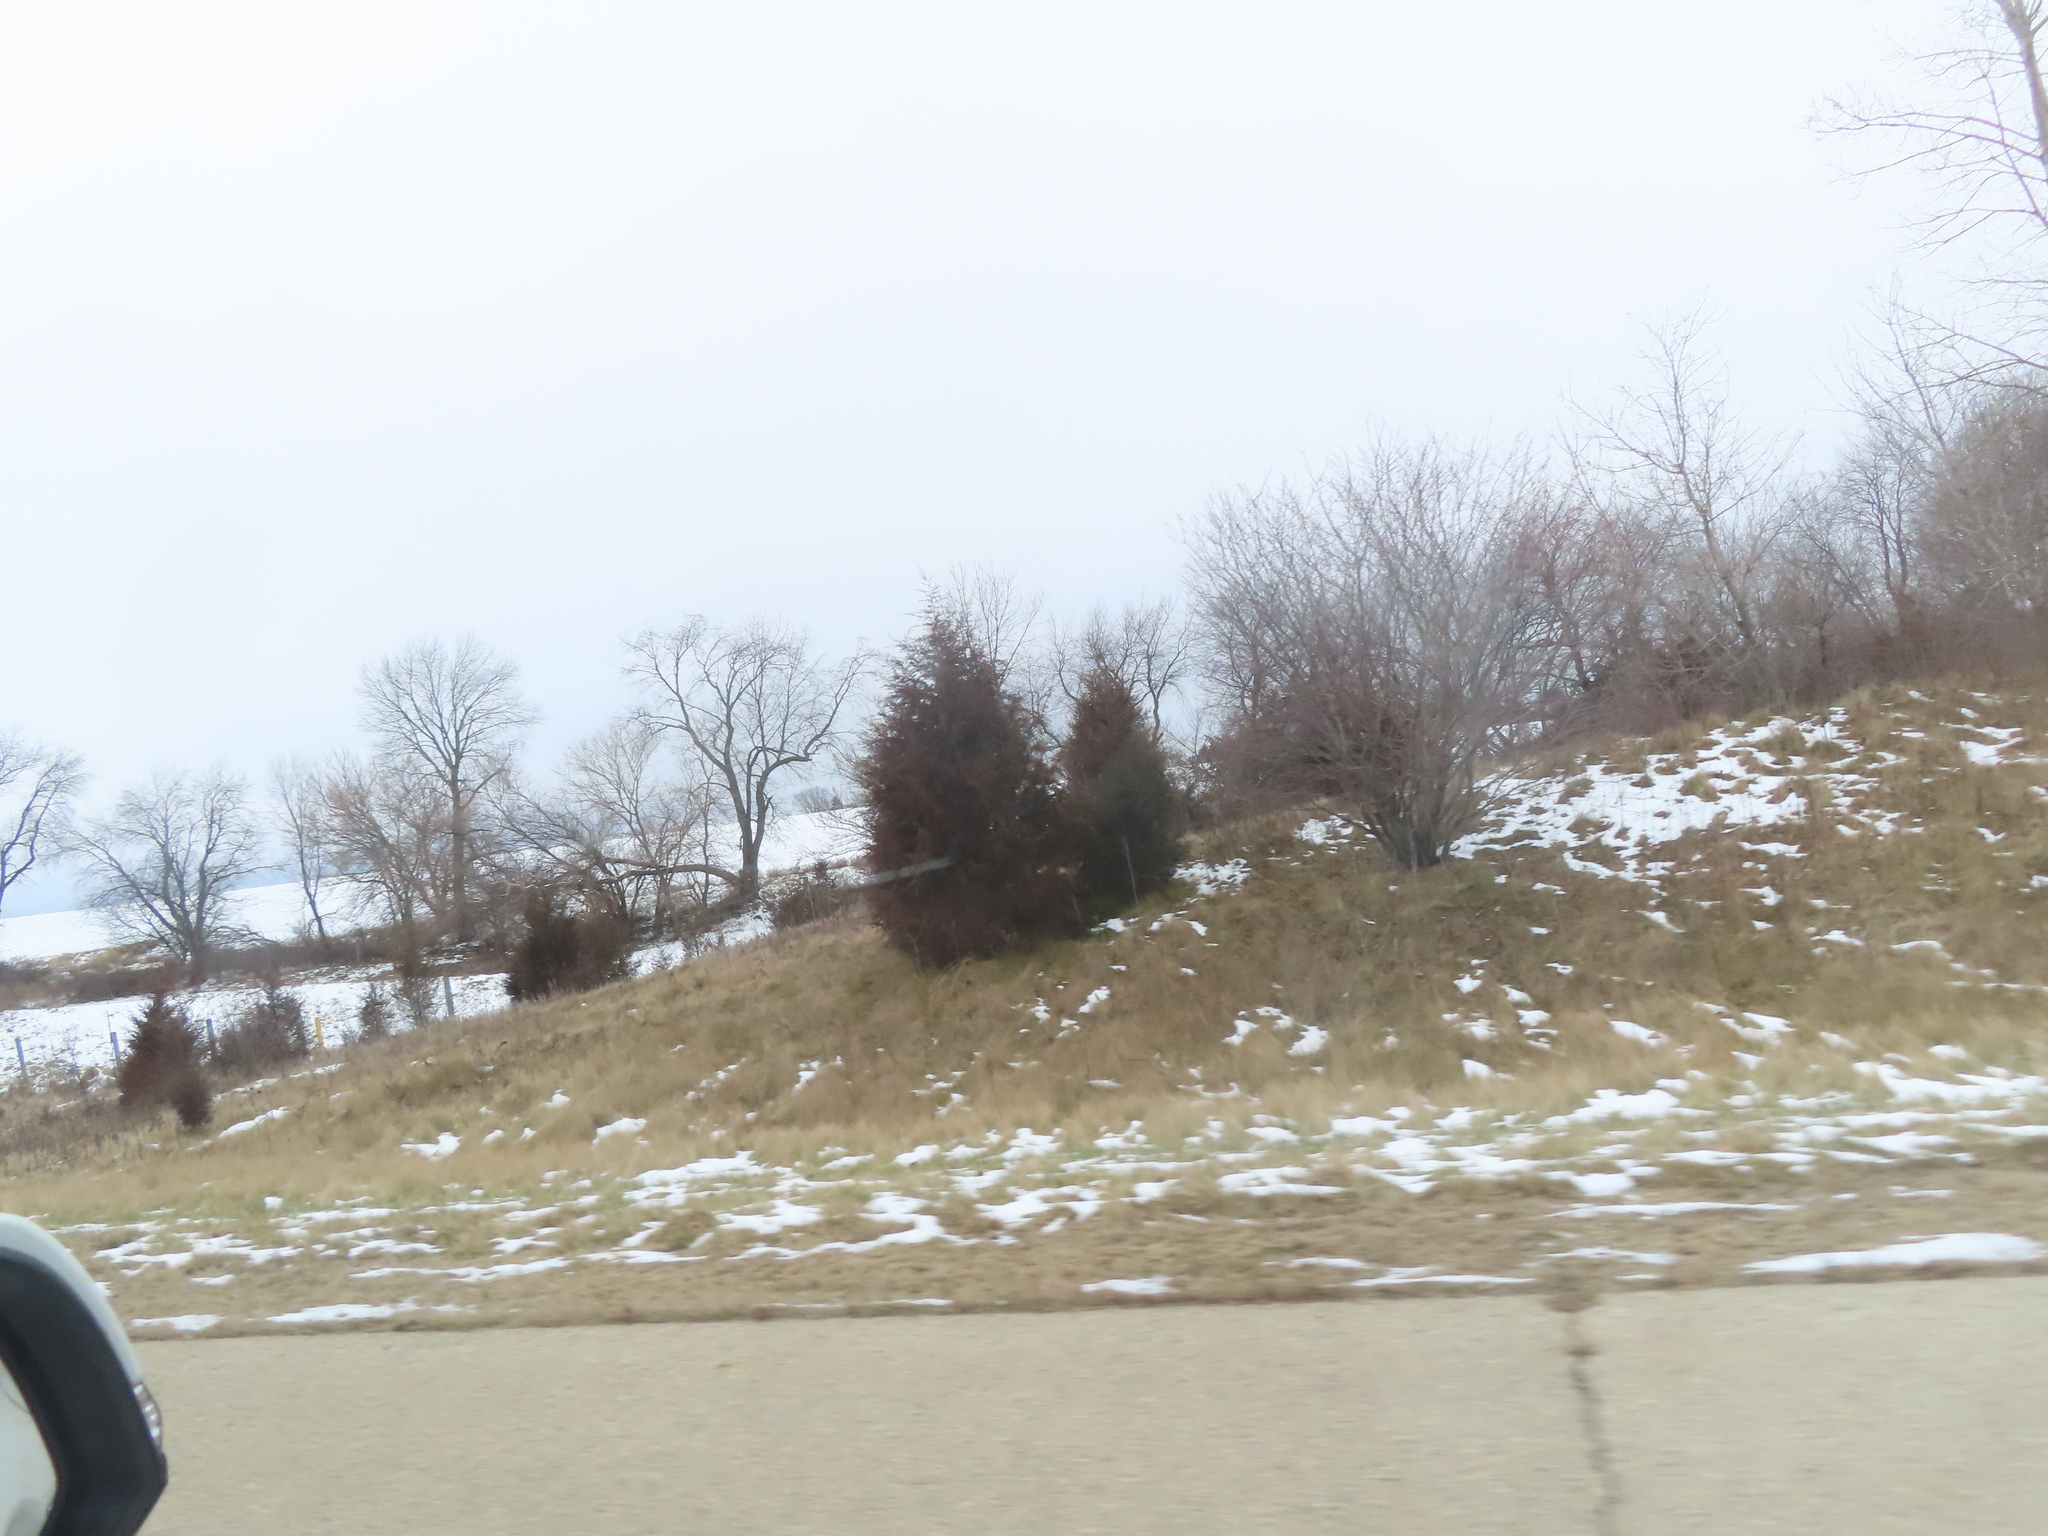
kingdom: Plantae
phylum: Tracheophyta
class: Pinopsida
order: Pinales
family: Cupressaceae
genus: Juniperus
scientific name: Juniperus virginiana
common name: Red juniper
